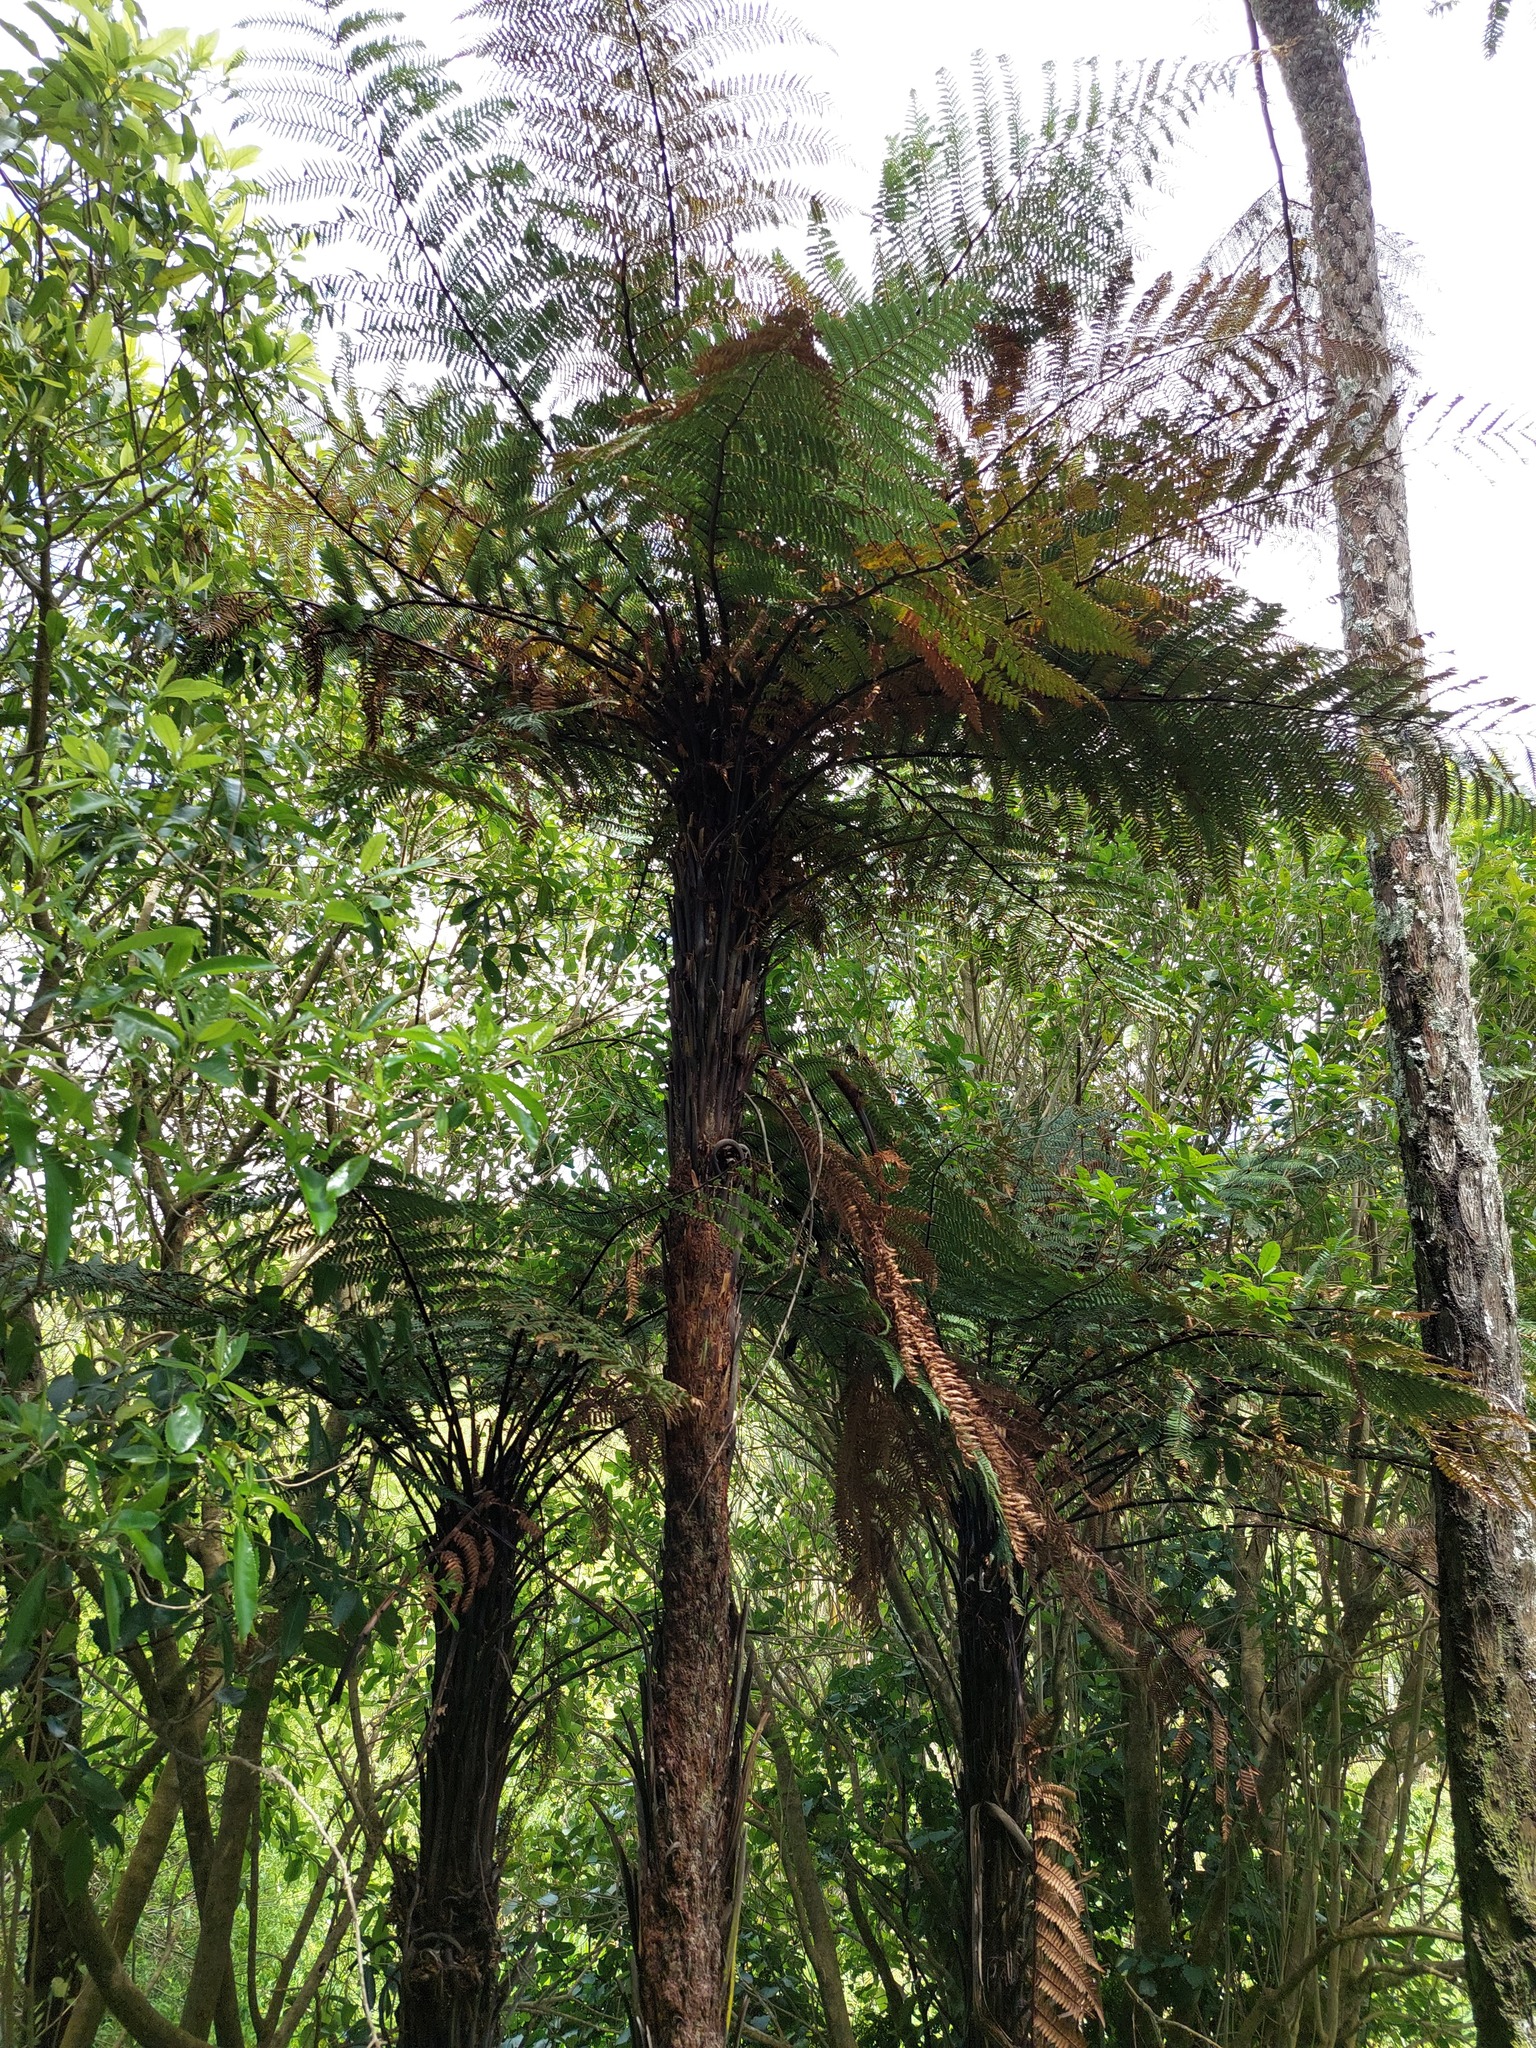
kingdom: Plantae
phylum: Tracheophyta
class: Polypodiopsida
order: Cyatheales
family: Dicksoniaceae
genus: Dicksonia
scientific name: Dicksonia squarrosa
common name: Hard treefern
